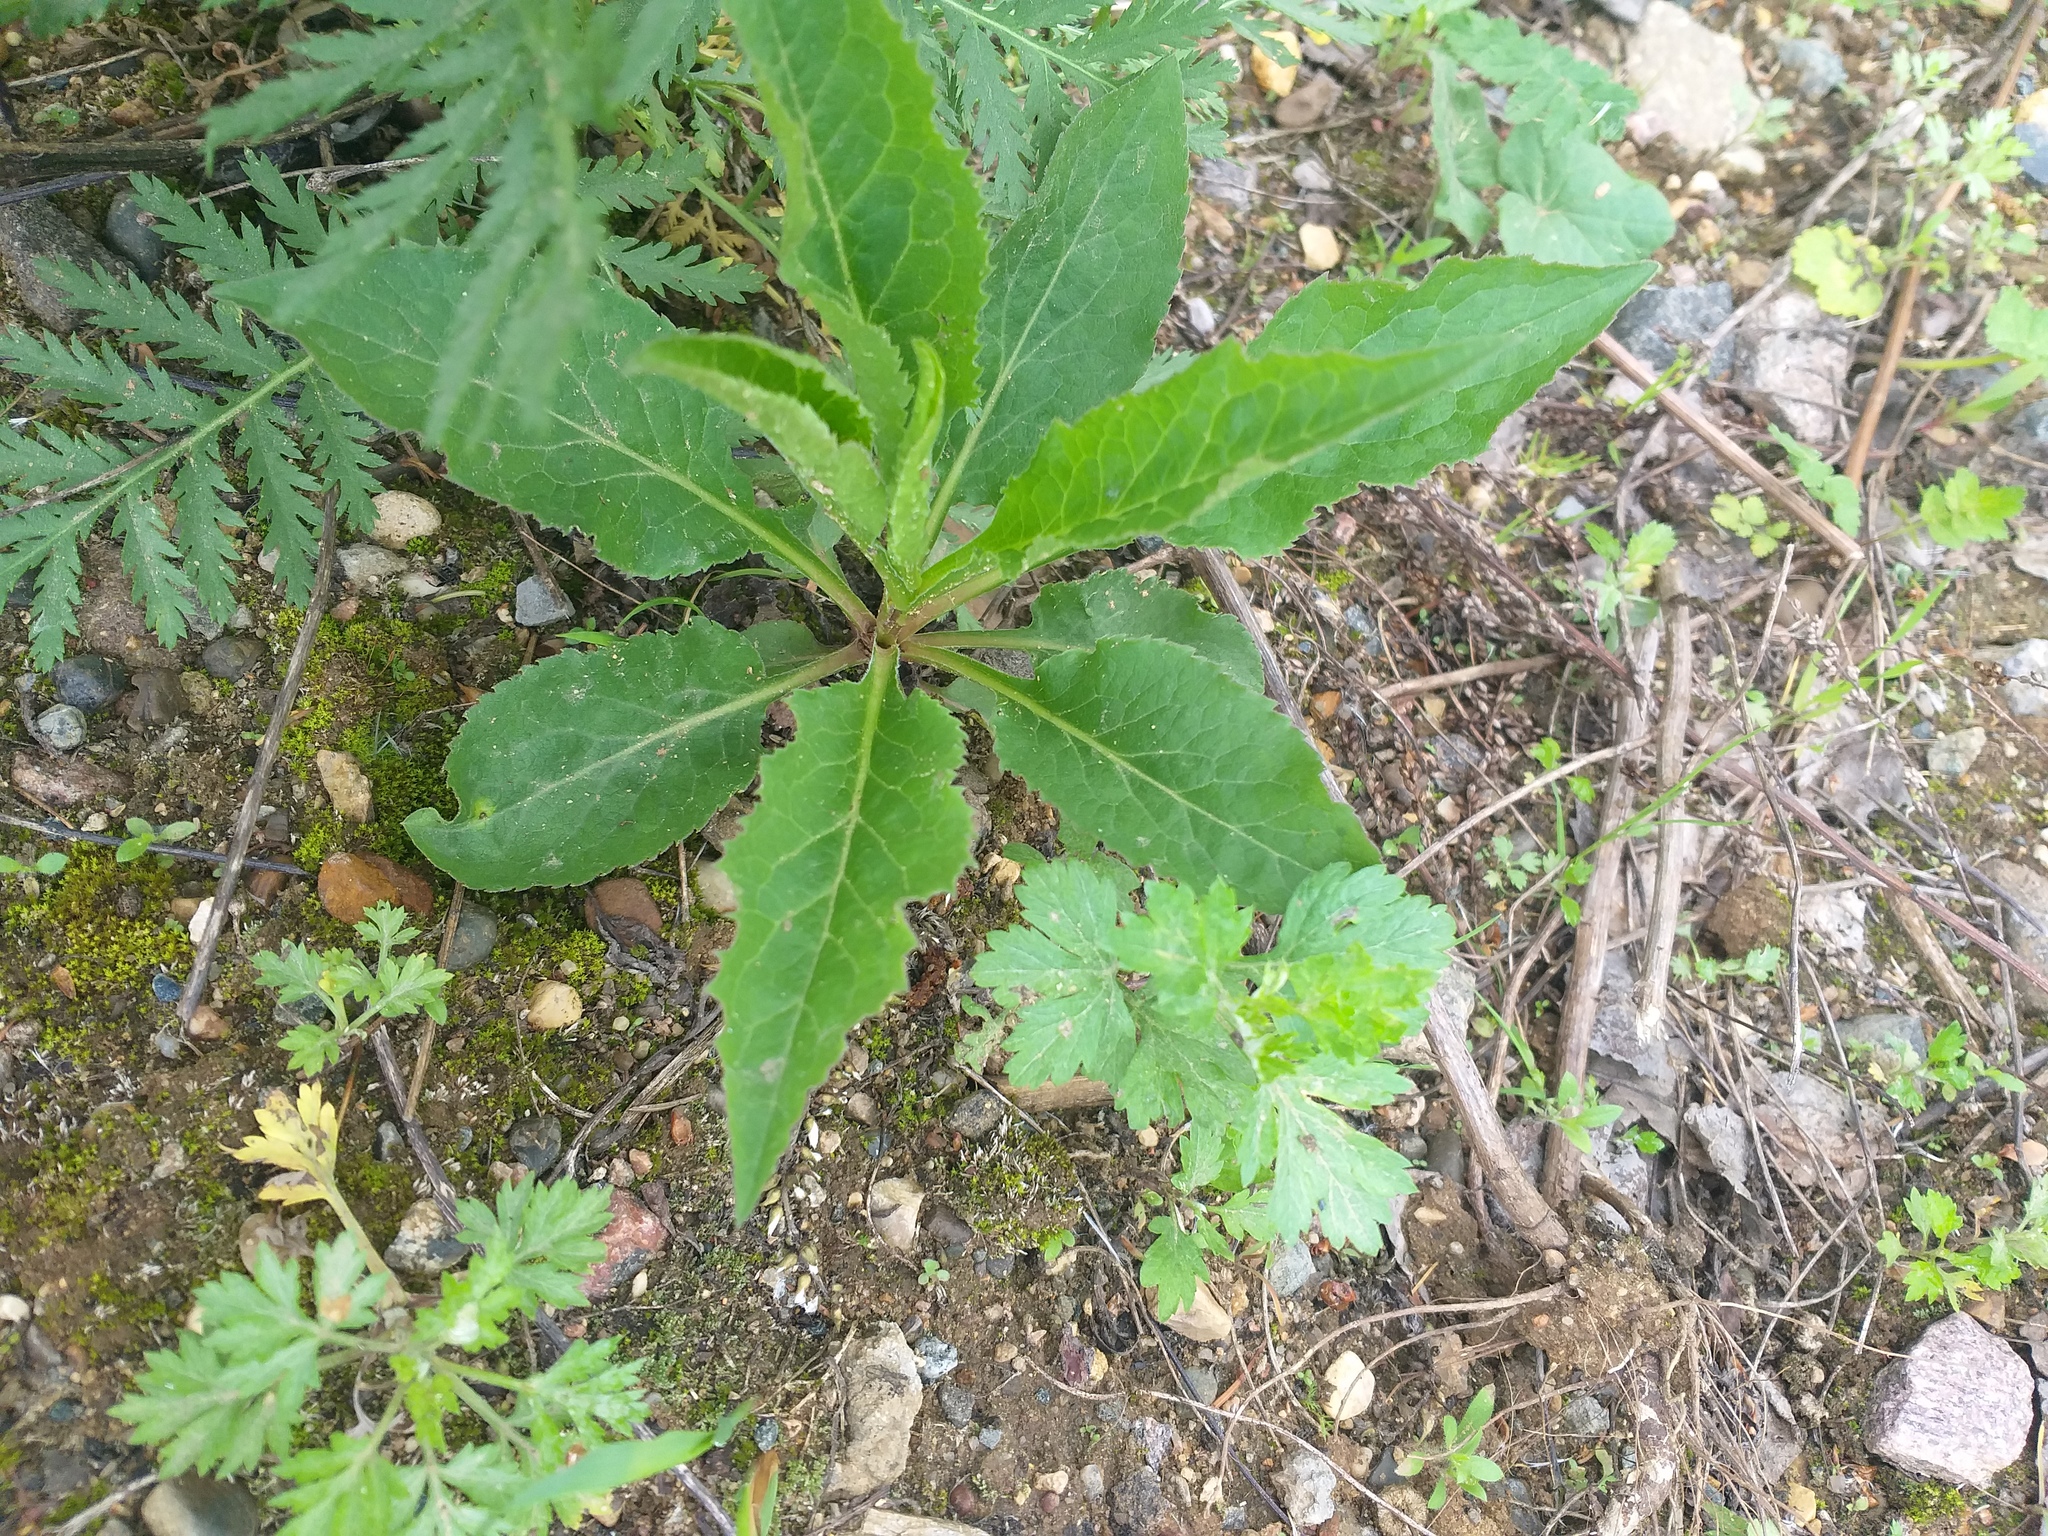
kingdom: Plantae
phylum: Tracheophyta
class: Magnoliopsida
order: Asterales
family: Asteraceae
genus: Solidago
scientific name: Solidago virgaurea
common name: Goldenrod
